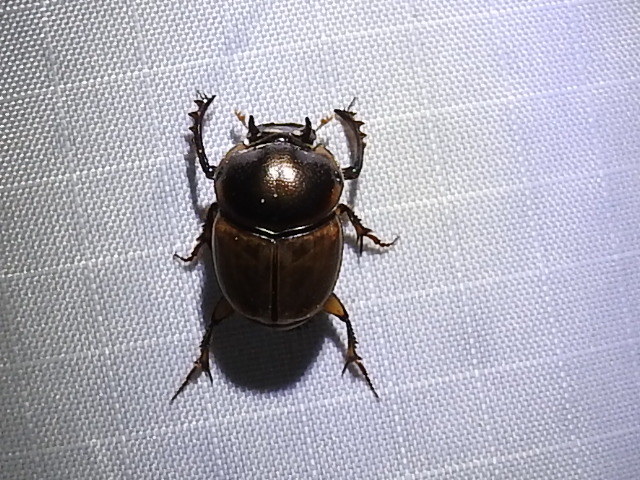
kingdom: Animalia
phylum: Arthropoda
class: Insecta
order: Coleoptera
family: Scarabaeidae
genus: Digitonthophagus
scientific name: Digitonthophagus gazella
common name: Brown dung beetle
